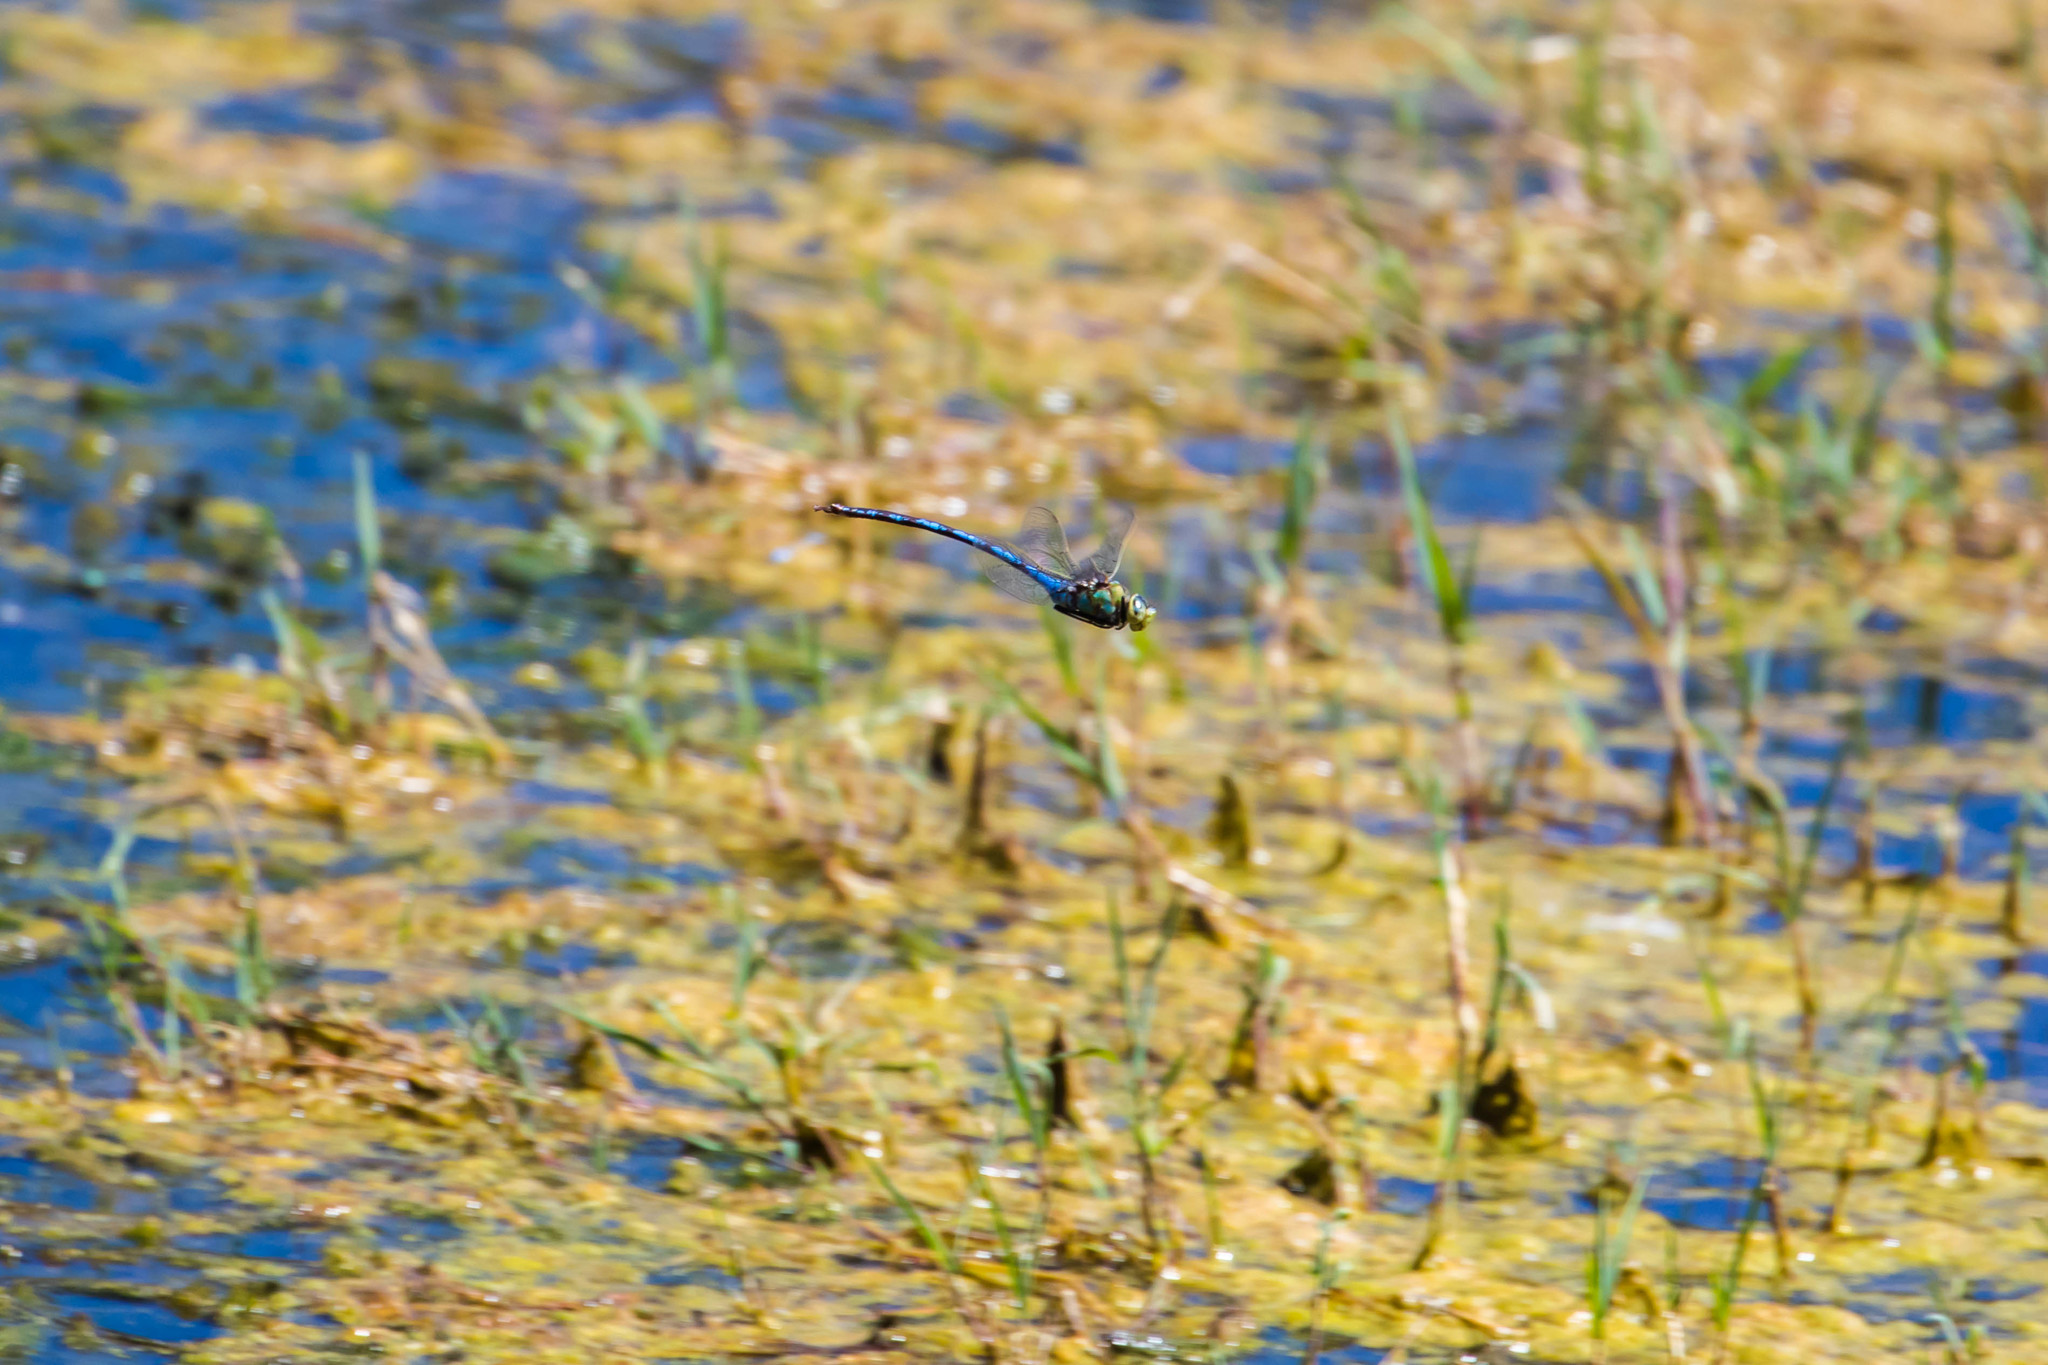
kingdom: Animalia
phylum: Arthropoda
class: Insecta
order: Odonata
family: Aeshnidae
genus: Anax
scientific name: Anax walsinghami
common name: Giant darner
